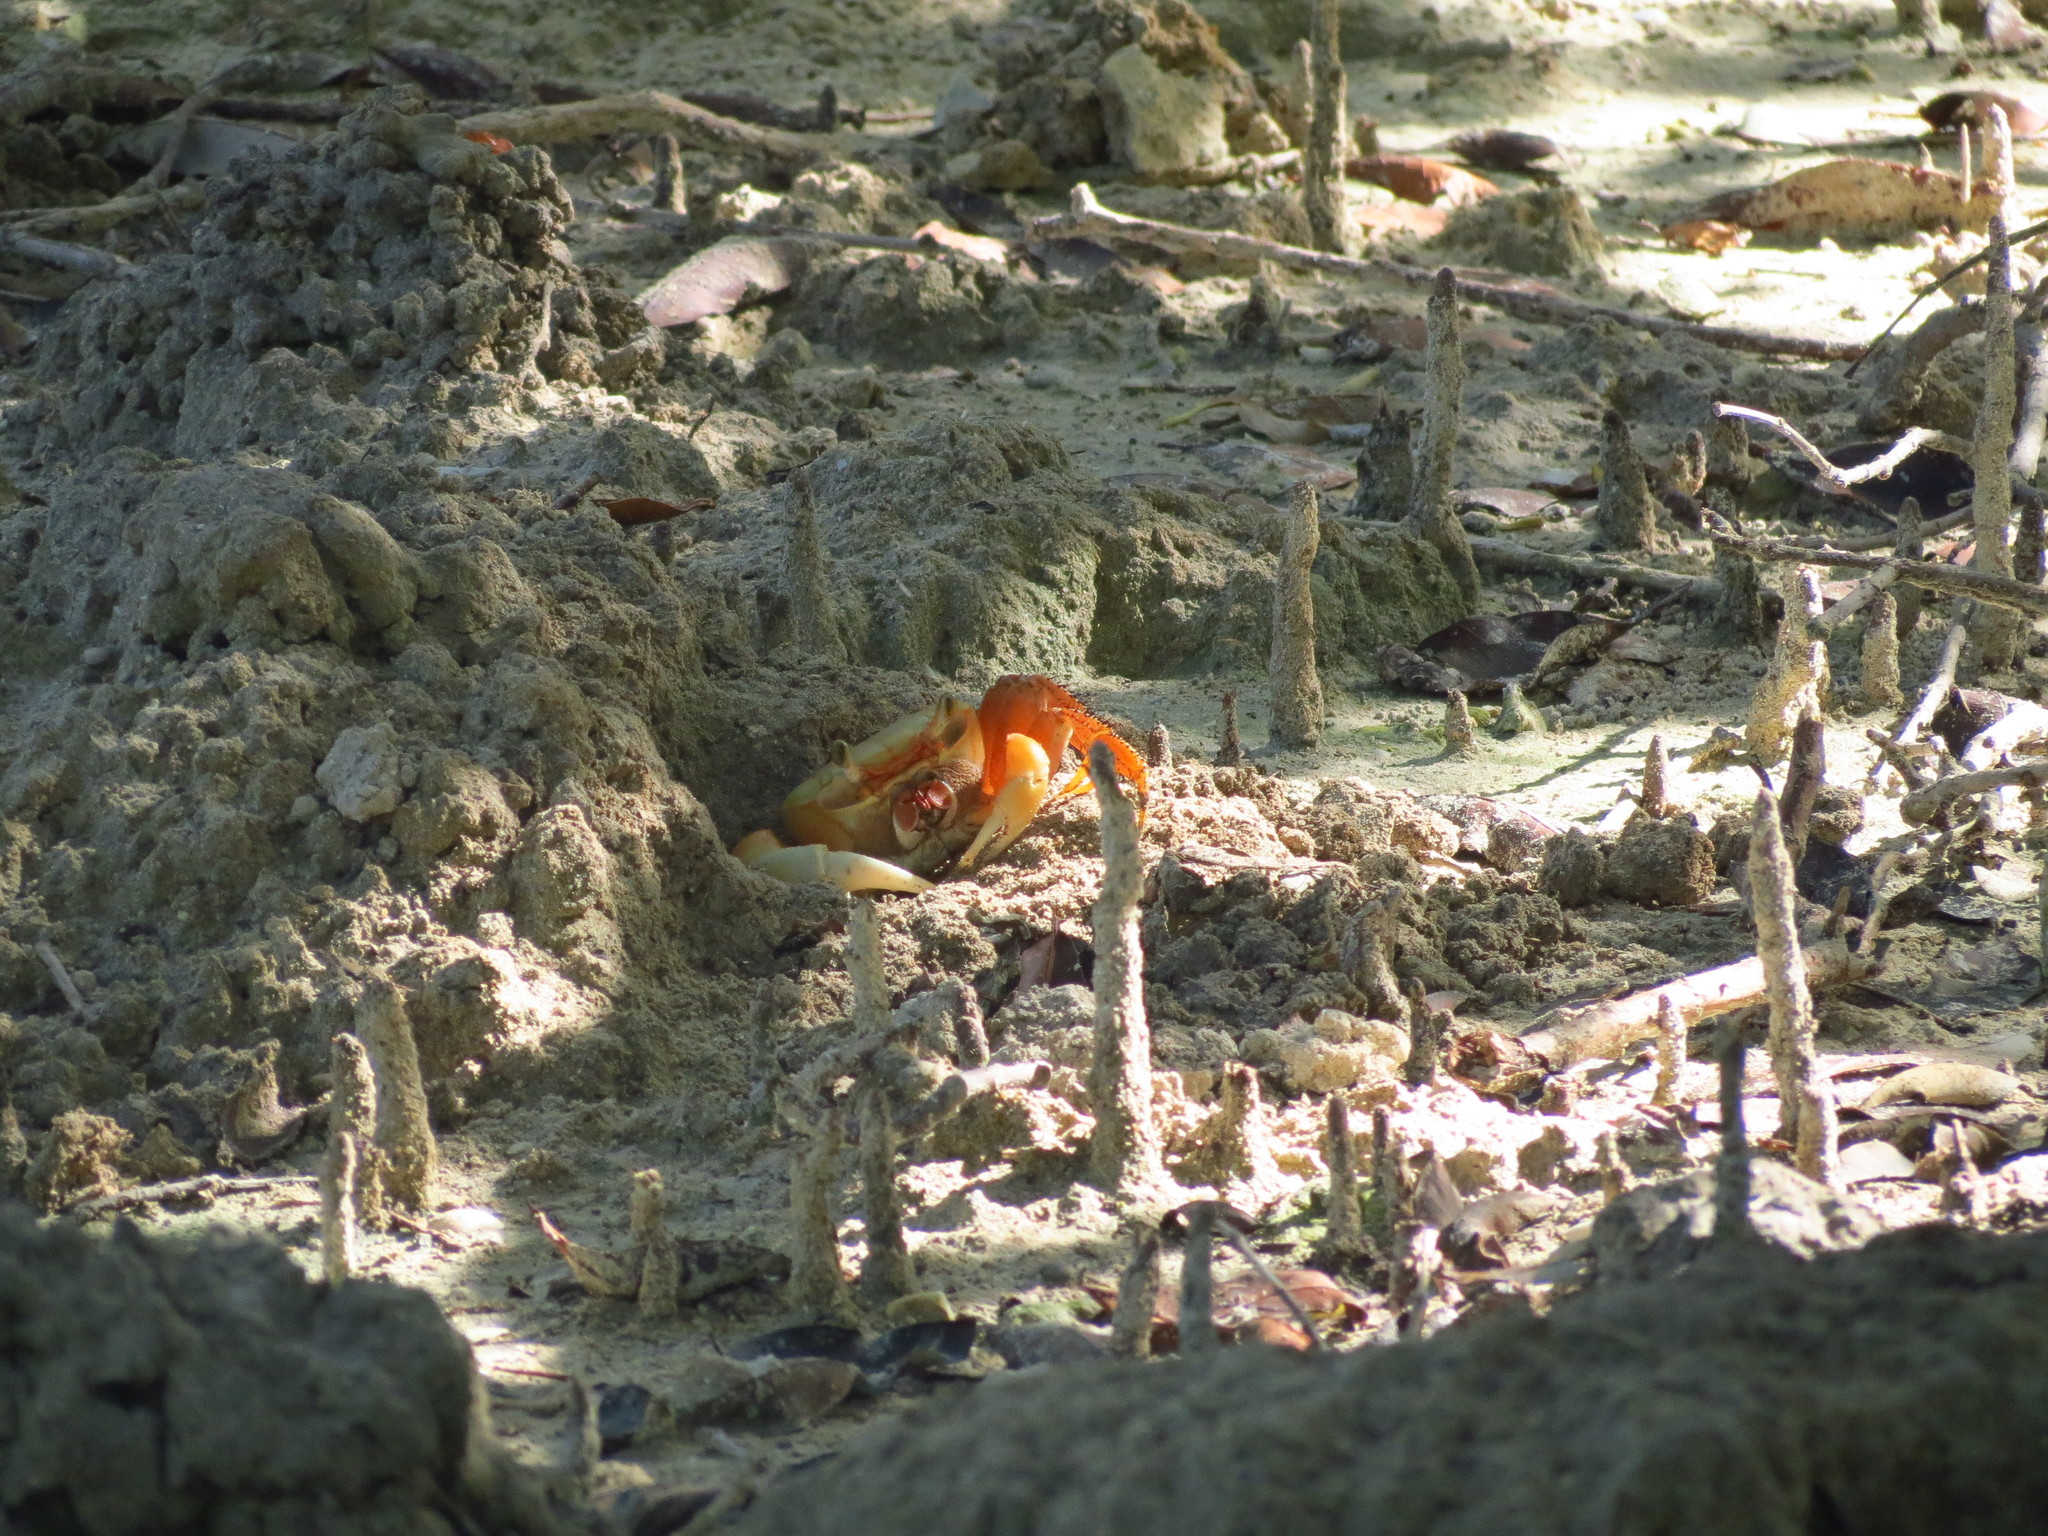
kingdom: Animalia
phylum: Arthropoda
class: Malacostraca
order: Decapoda
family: Gecarcinidae
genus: Cardisoma
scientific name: Cardisoma guanhumi
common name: Great land crab
